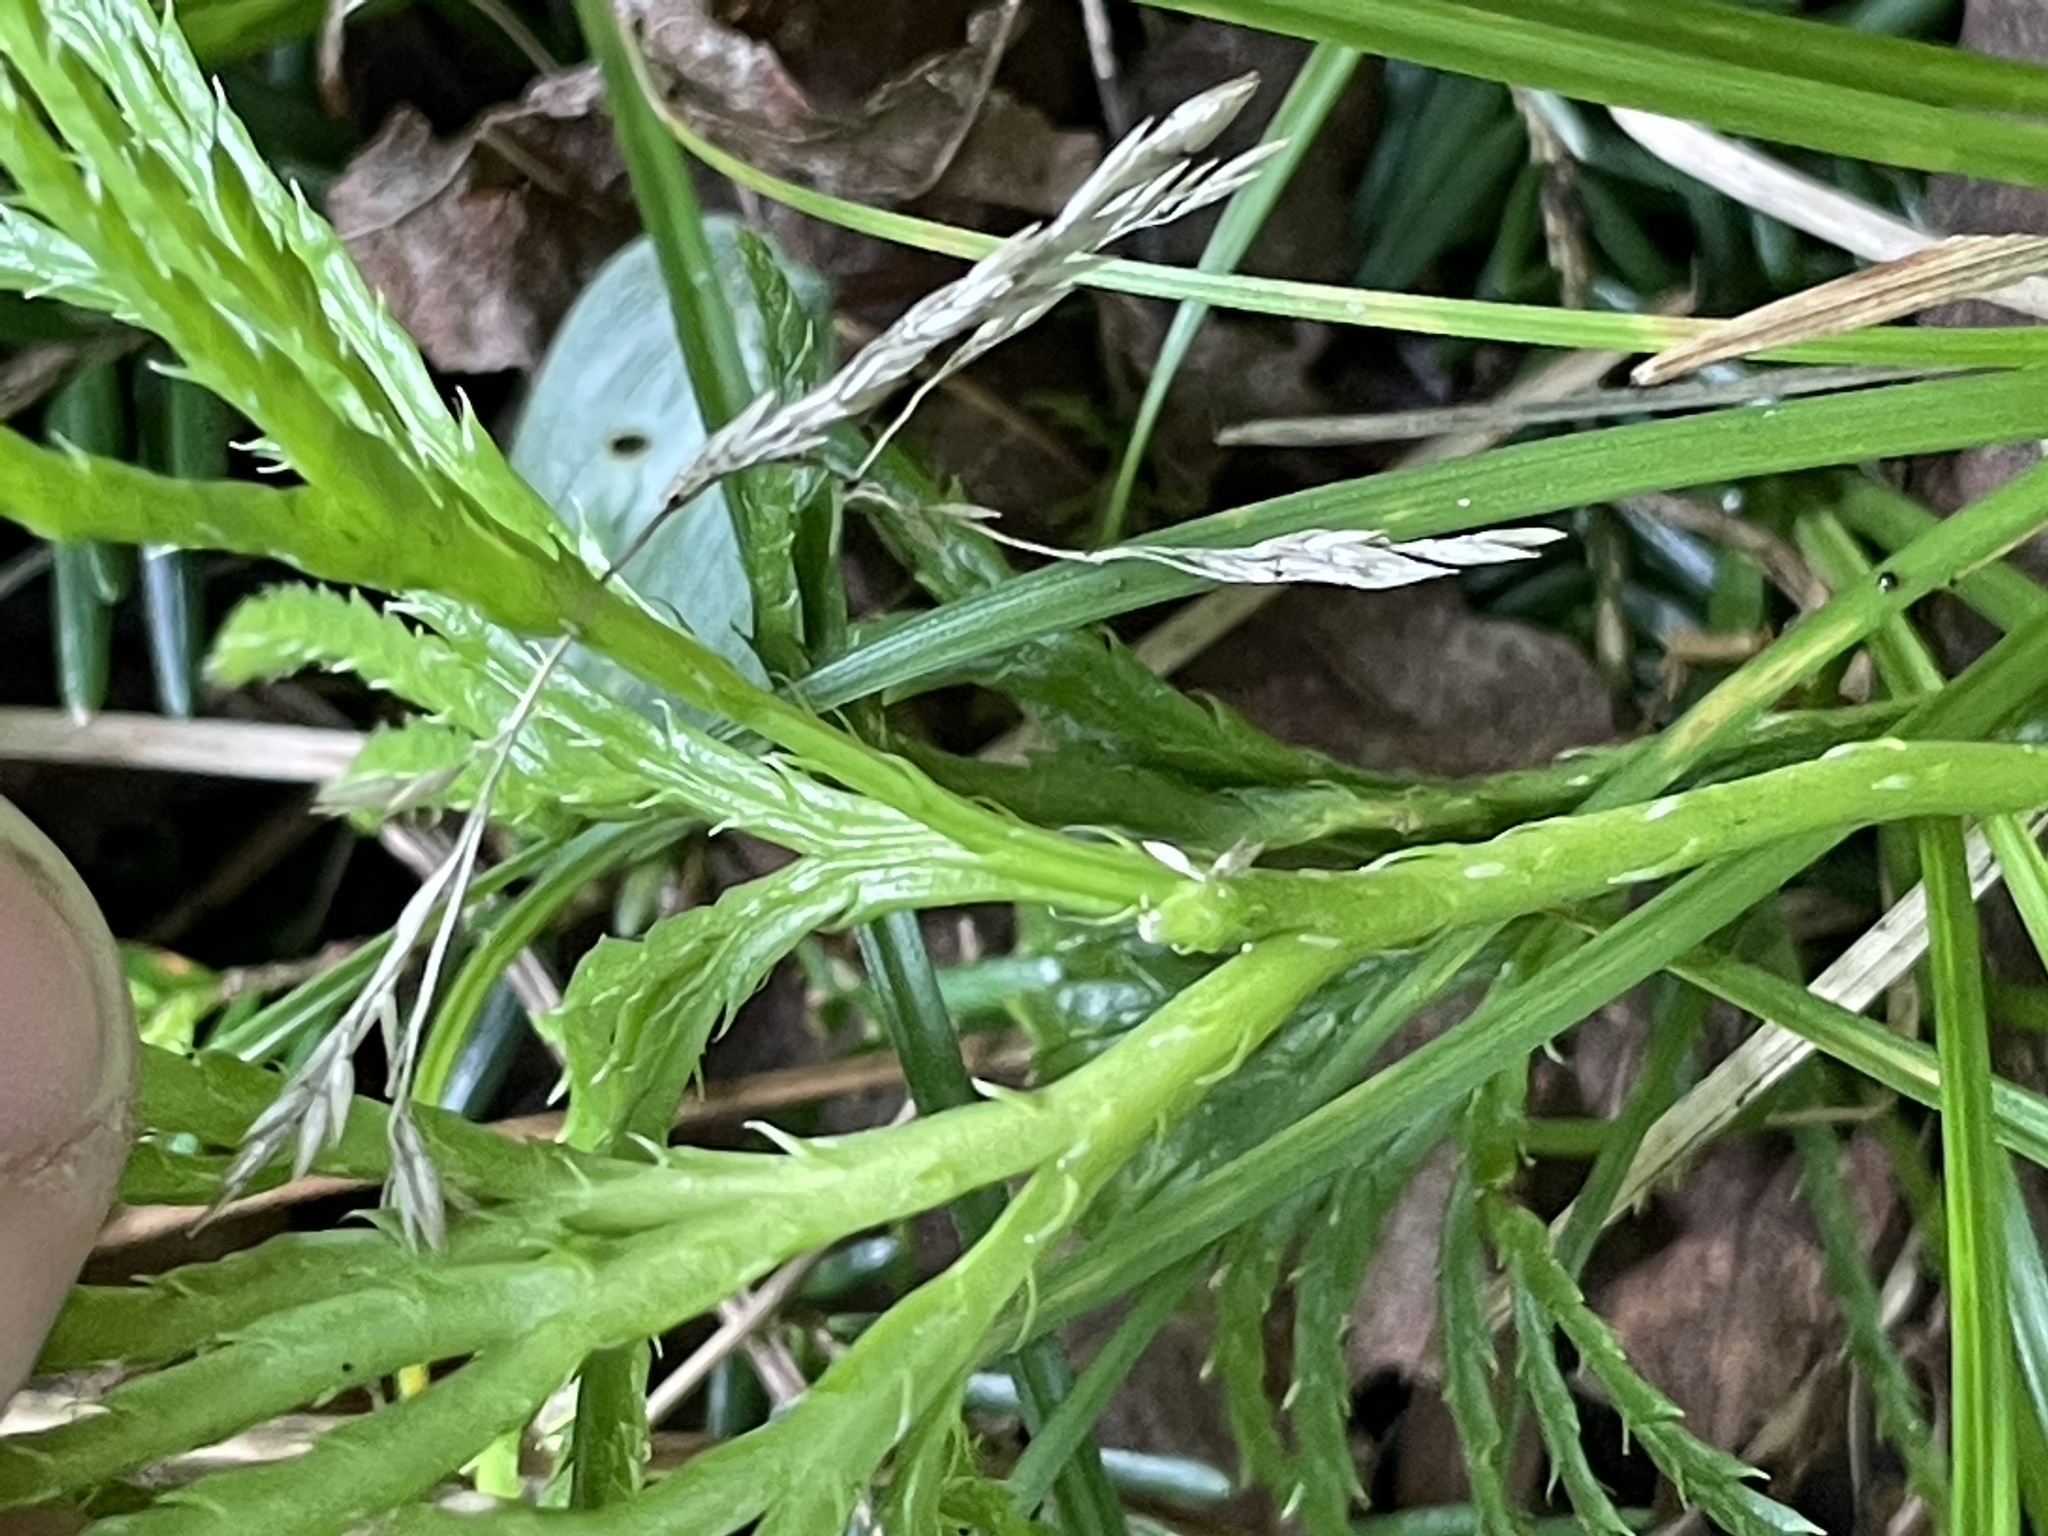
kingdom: Plantae
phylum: Tracheophyta
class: Lycopodiopsida
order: Lycopodiales
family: Lycopodiaceae
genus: Diphasiastrum
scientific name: Diphasiastrum digitatum
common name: Southern running-pine
